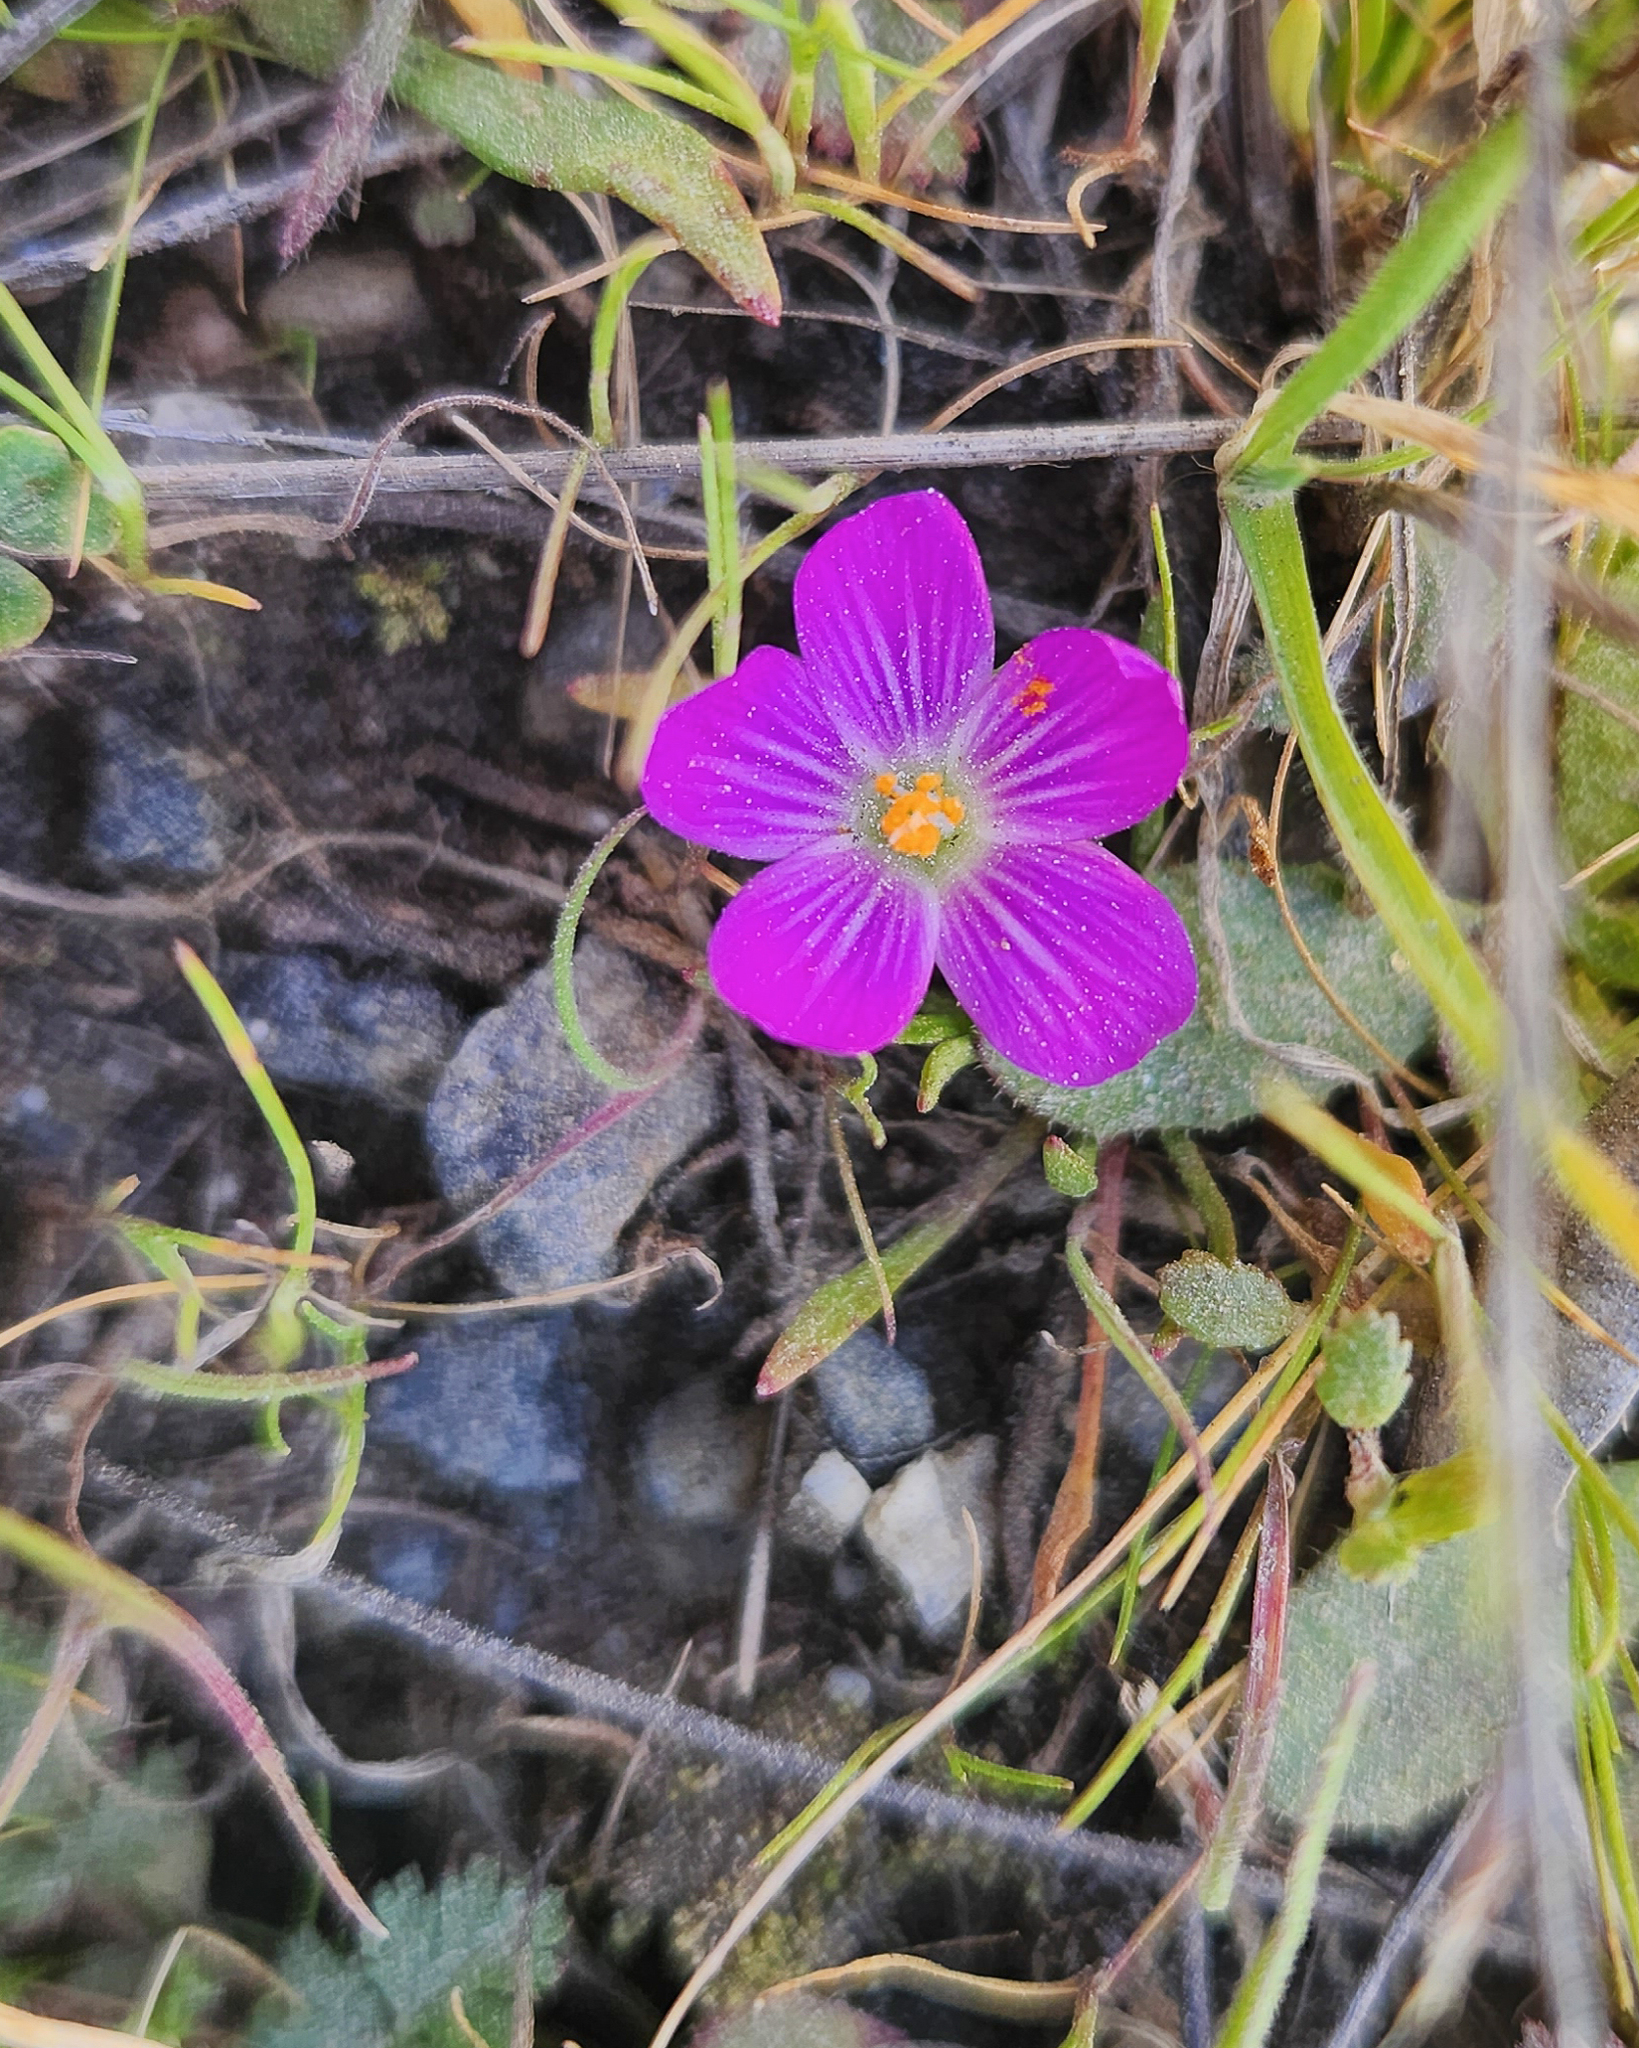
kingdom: Plantae
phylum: Tracheophyta
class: Magnoliopsida
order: Caryophyllales
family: Montiaceae
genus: Calandrinia
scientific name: Calandrinia menziesii
